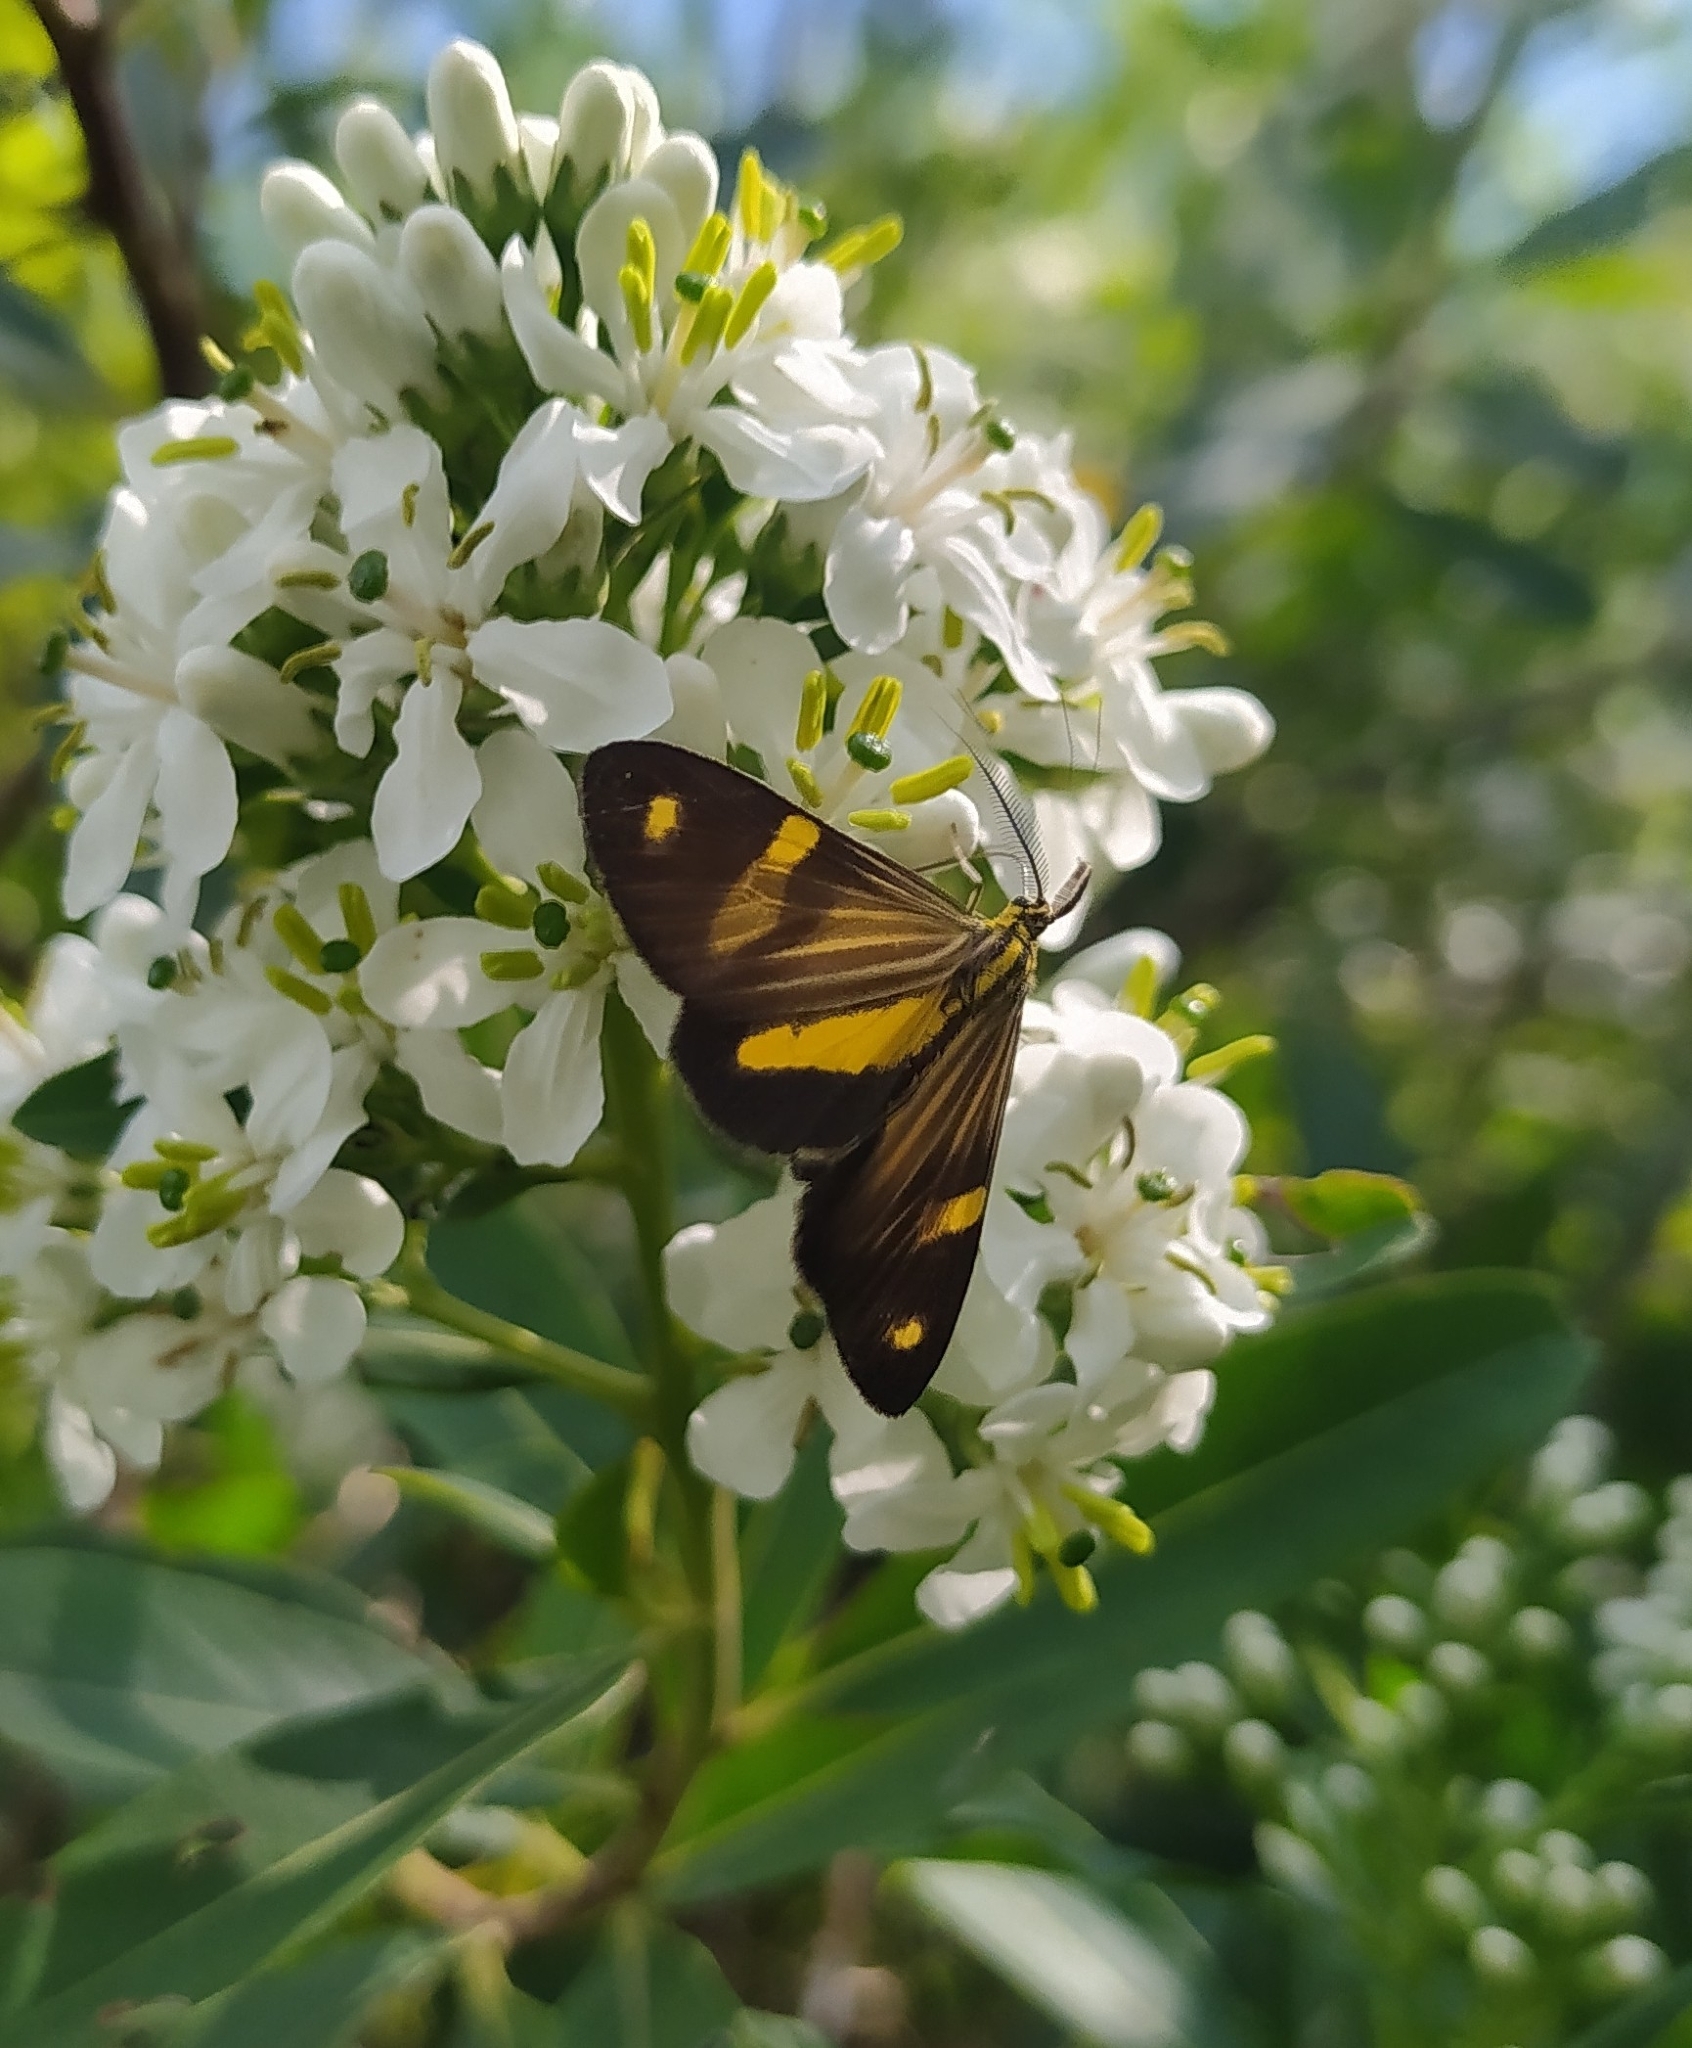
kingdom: Animalia
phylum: Arthropoda
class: Insecta
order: Lepidoptera
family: Notodontidae
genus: Phaeochlaena
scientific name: Phaeochlaena
